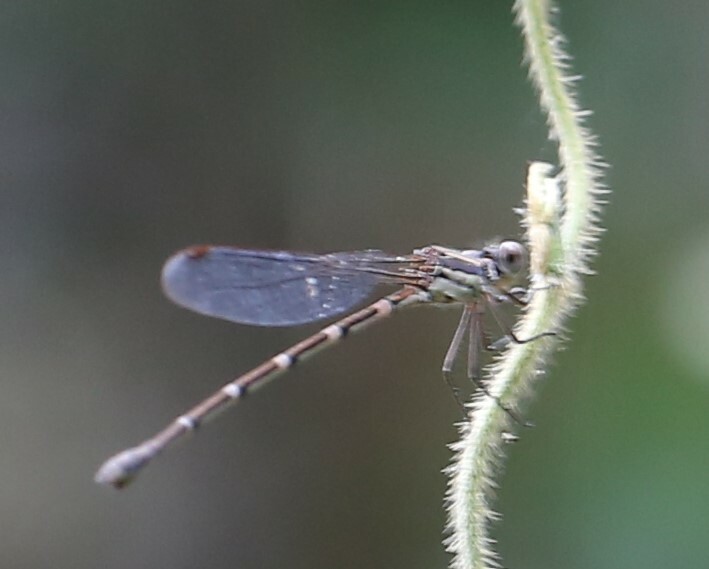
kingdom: Animalia
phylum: Arthropoda
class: Insecta
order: Odonata
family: Lestidae
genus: Austrolestes
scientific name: Austrolestes leda
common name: Wandering ringtail
